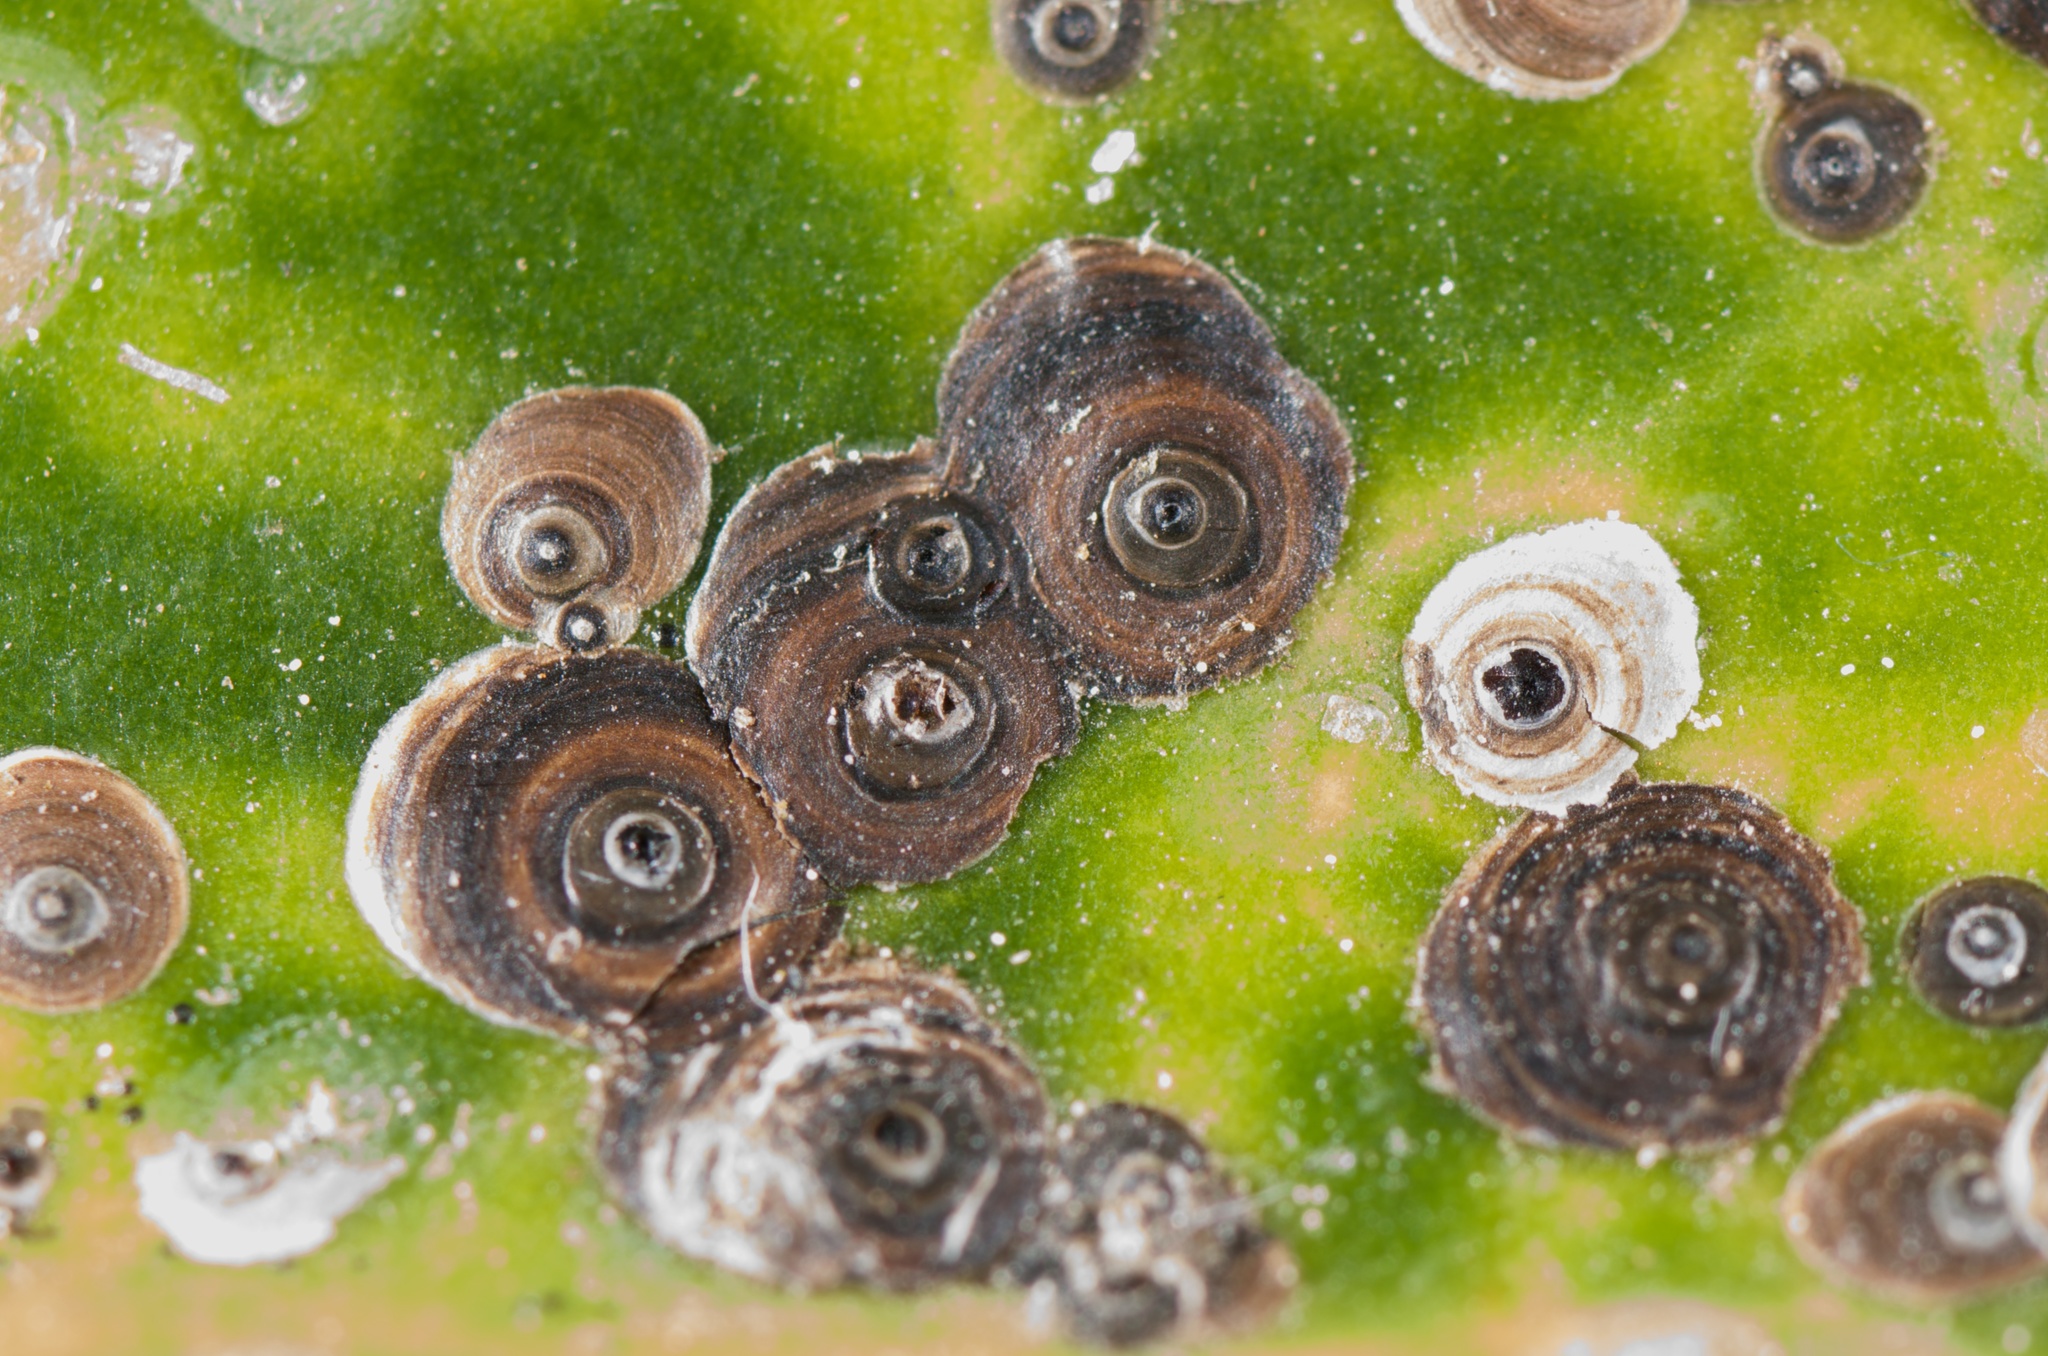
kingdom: Animalia
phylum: Arthropoda
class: Insecta
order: Hemiptera
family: Diaspididae
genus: Lindingaspis
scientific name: Lindingaspis rossi
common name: Araucaria black scale
